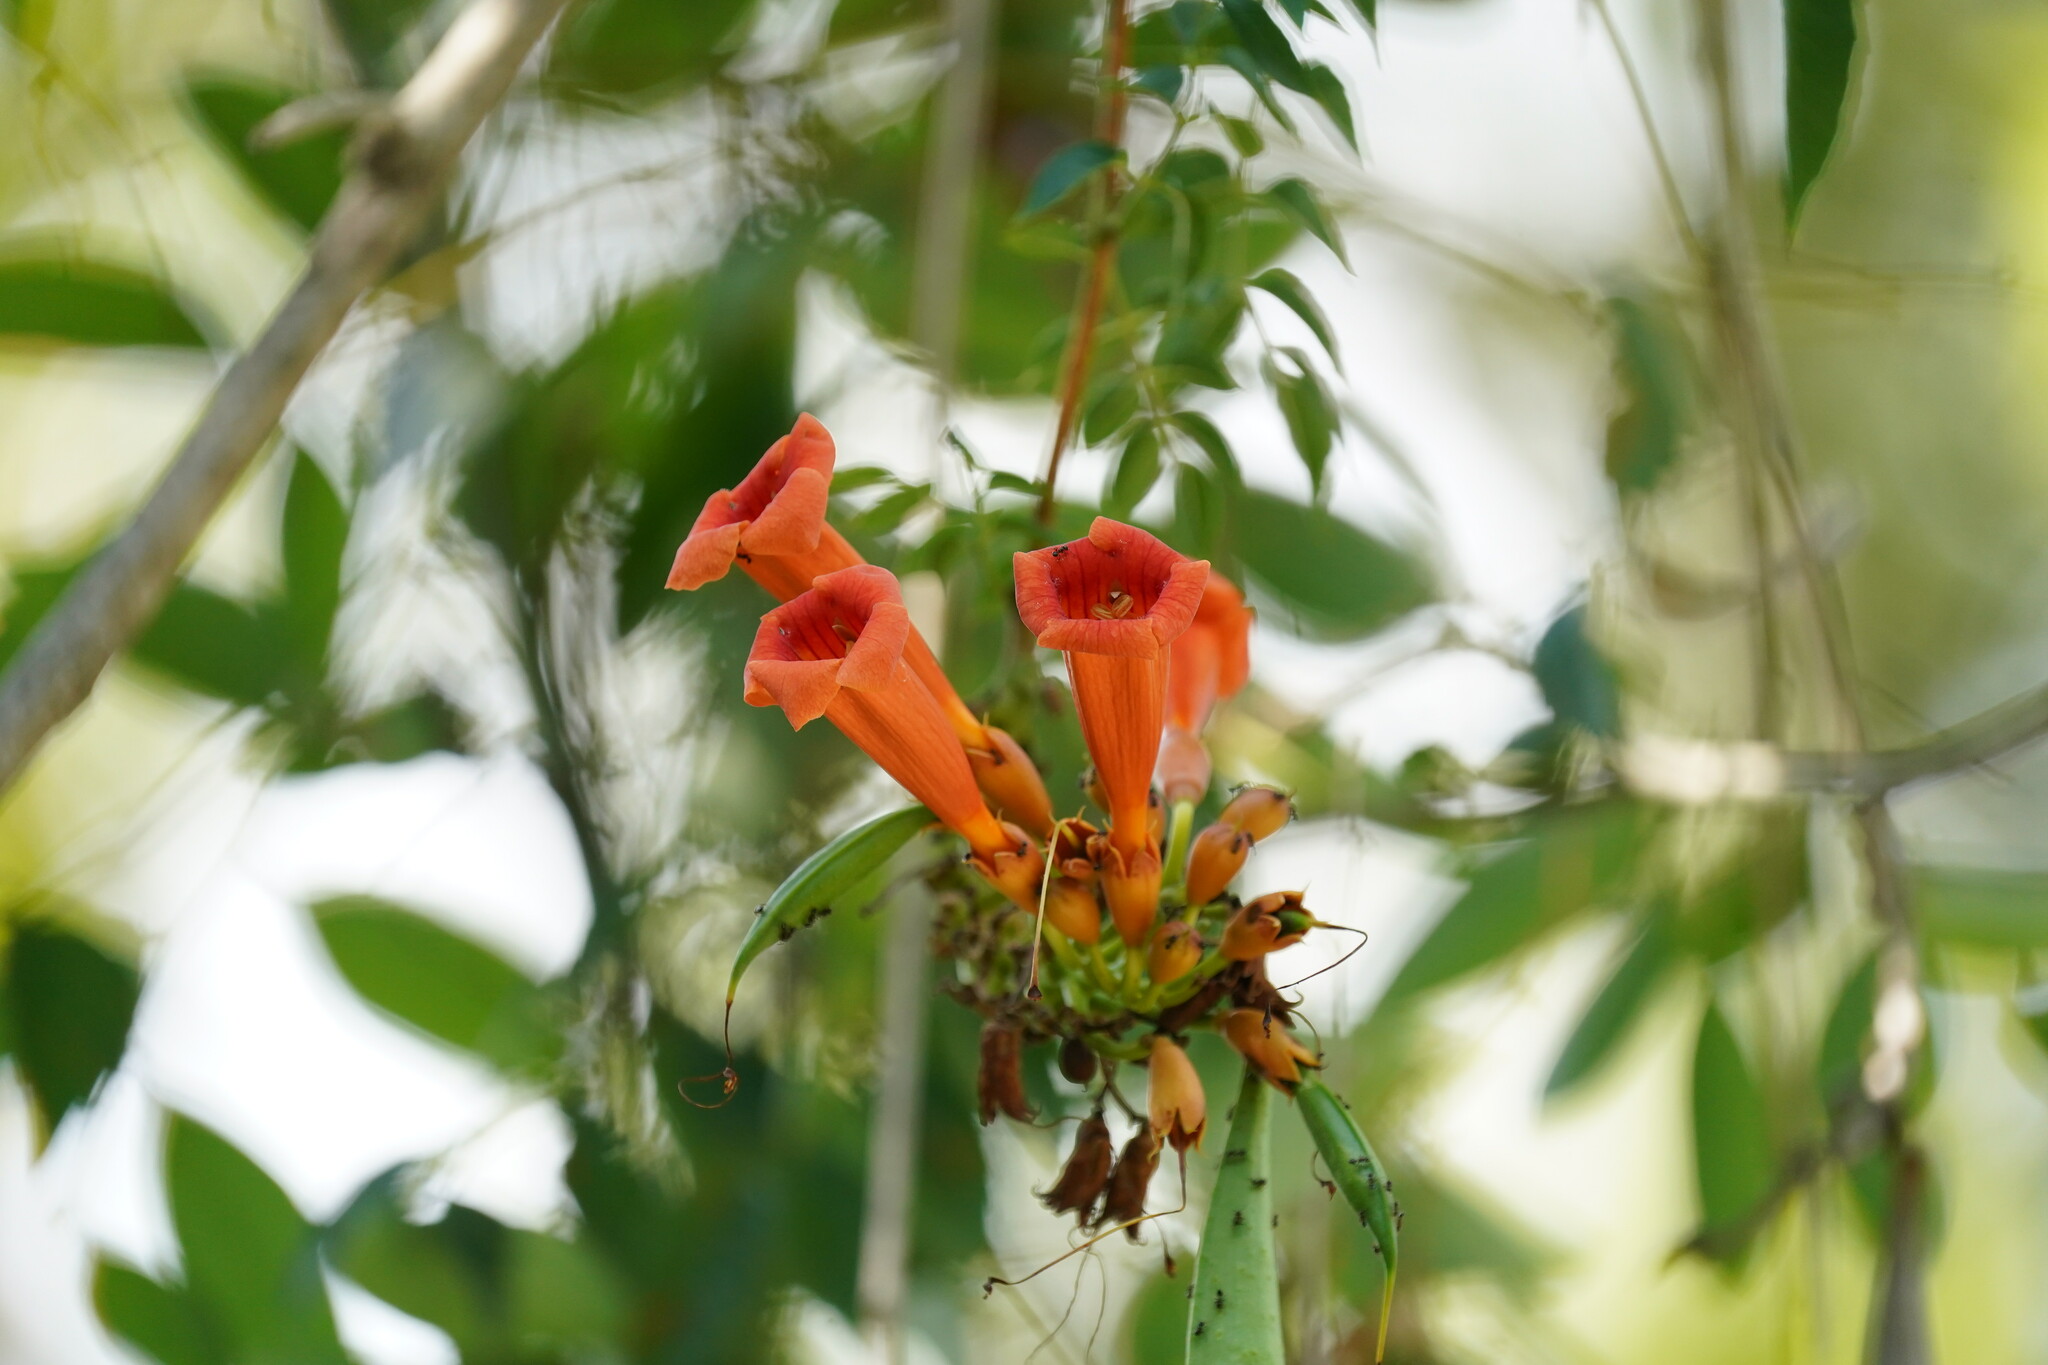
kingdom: Plantae
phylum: Tracheophyta
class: Magnoliopsida
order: Lamiales
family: Bignoniaceae
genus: Campsis
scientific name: Campsis radicans
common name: Trumpet-creeper
